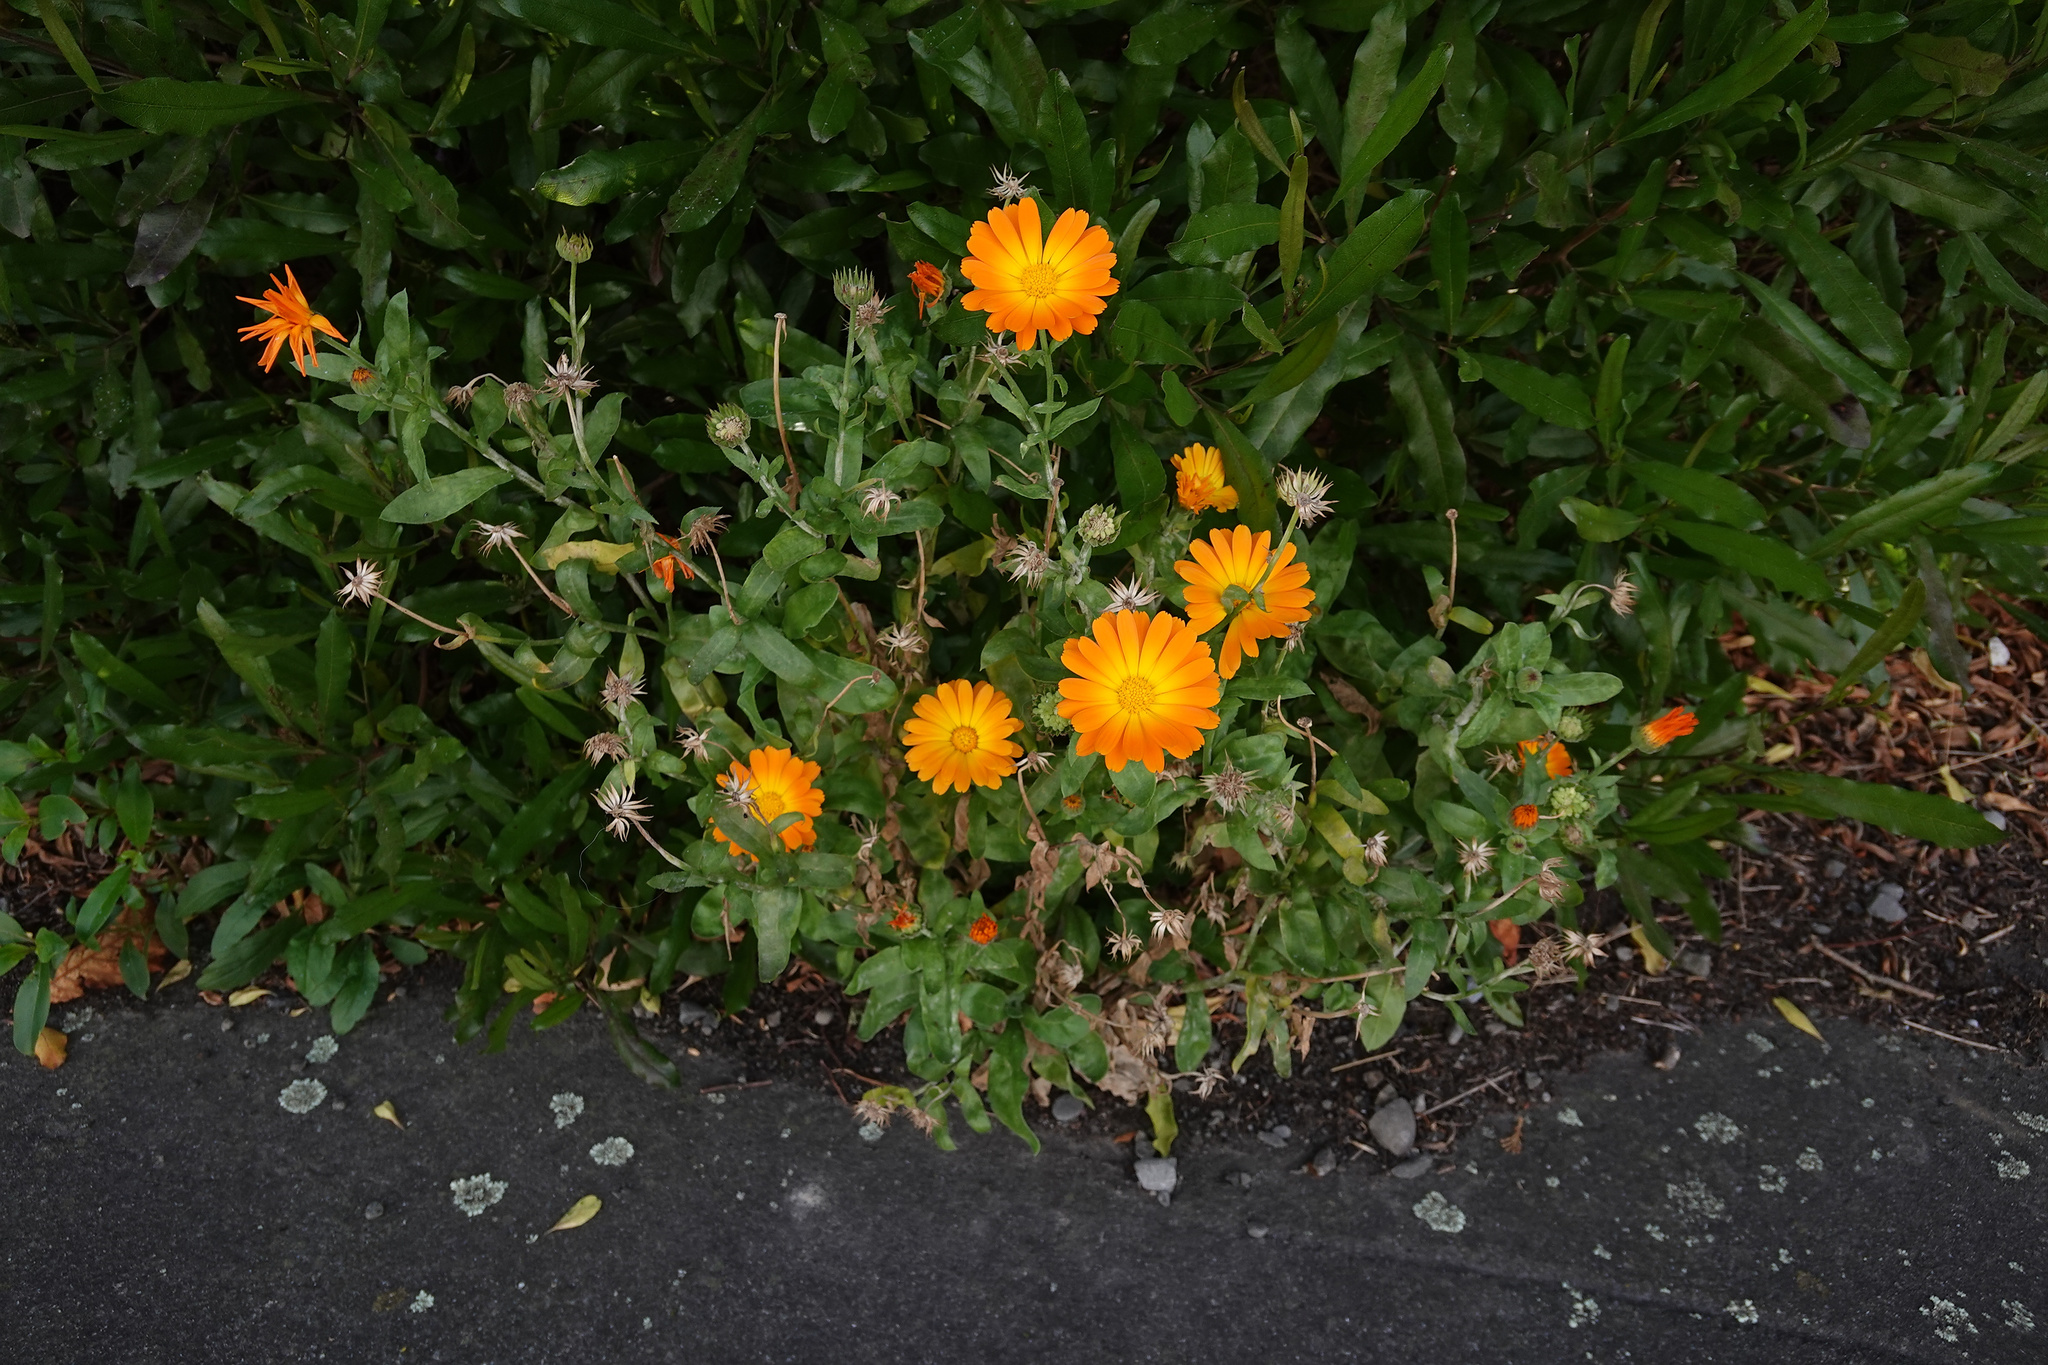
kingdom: Plantae
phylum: Tracheophyta
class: Magnoliopsida
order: Asterales
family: Asteraceae
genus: Calendula
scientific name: Calendula officinalis
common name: Pot marigold
